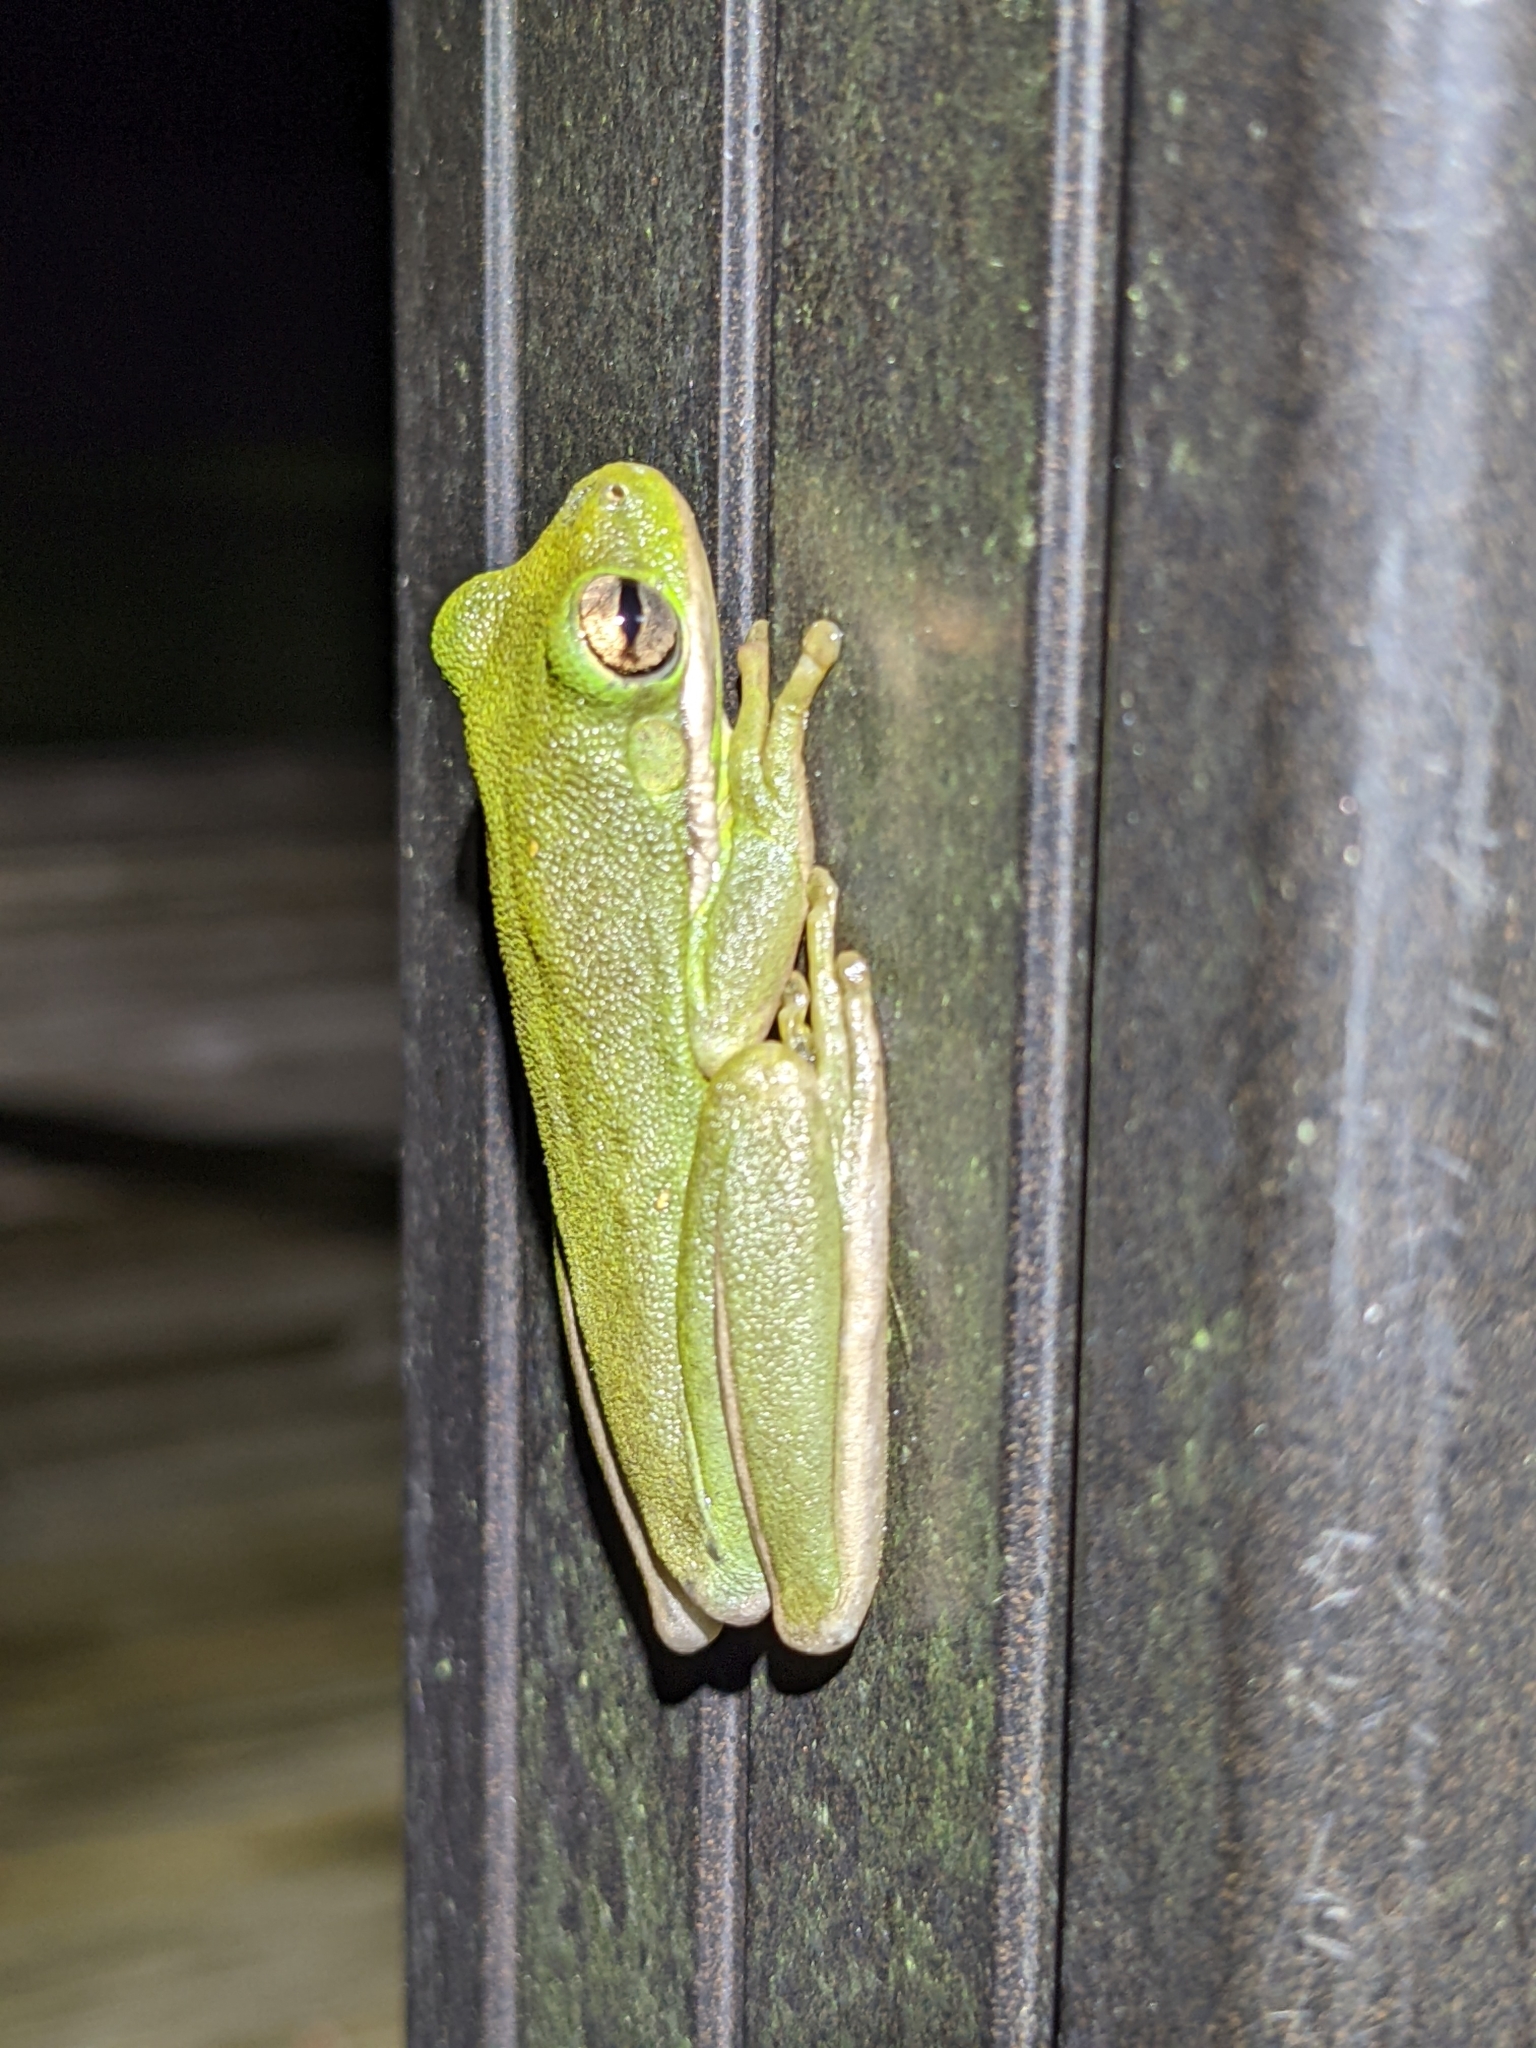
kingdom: Animalia
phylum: Chordata
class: Amphibia
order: Anura
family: Hylidae
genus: Dryophytes
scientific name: Dryophytes cinereus
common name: Green treefrog
